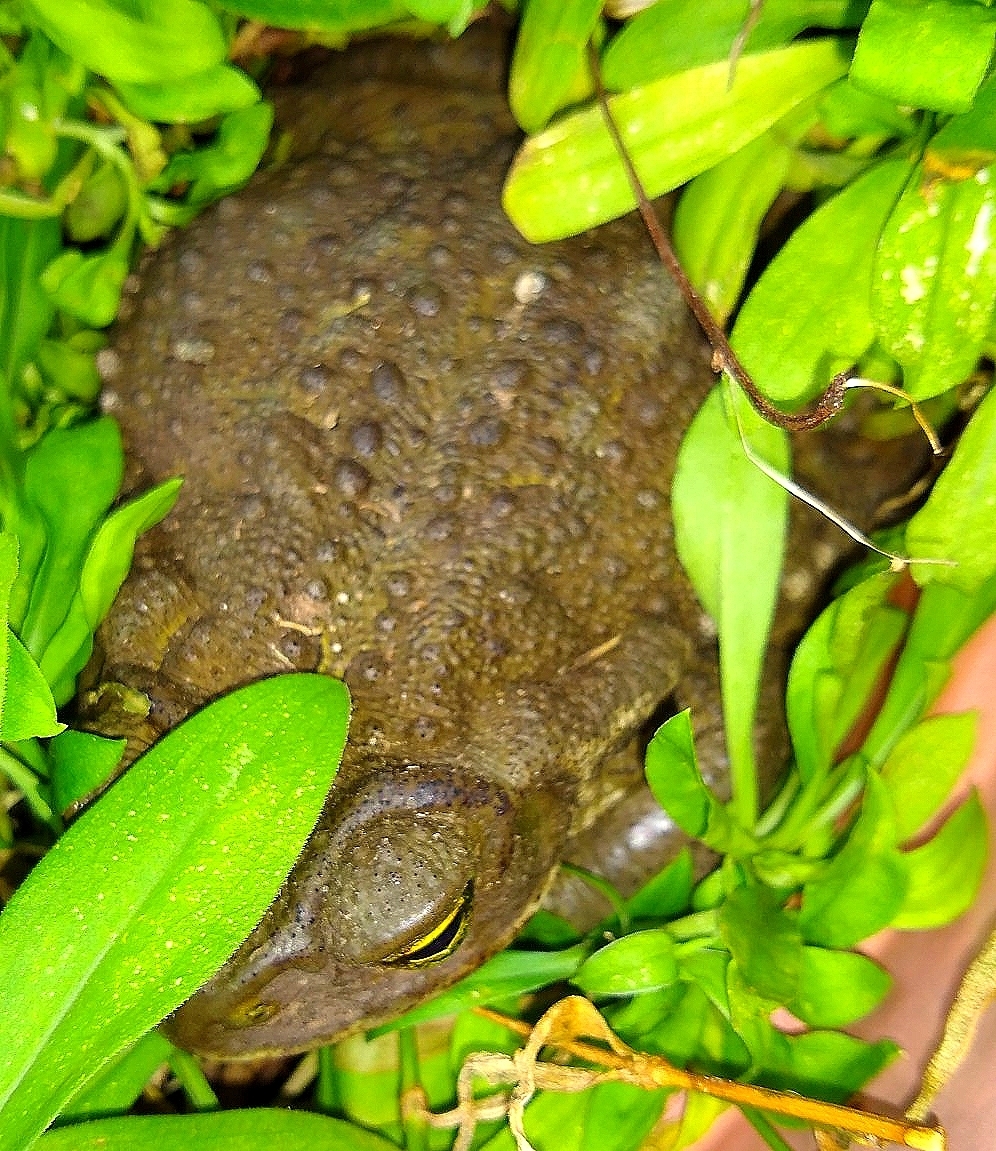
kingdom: Animalia
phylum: Chordata
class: Amphibia
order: Anura
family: Bufonidae
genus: Rhinella
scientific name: Rhinella arenarum
